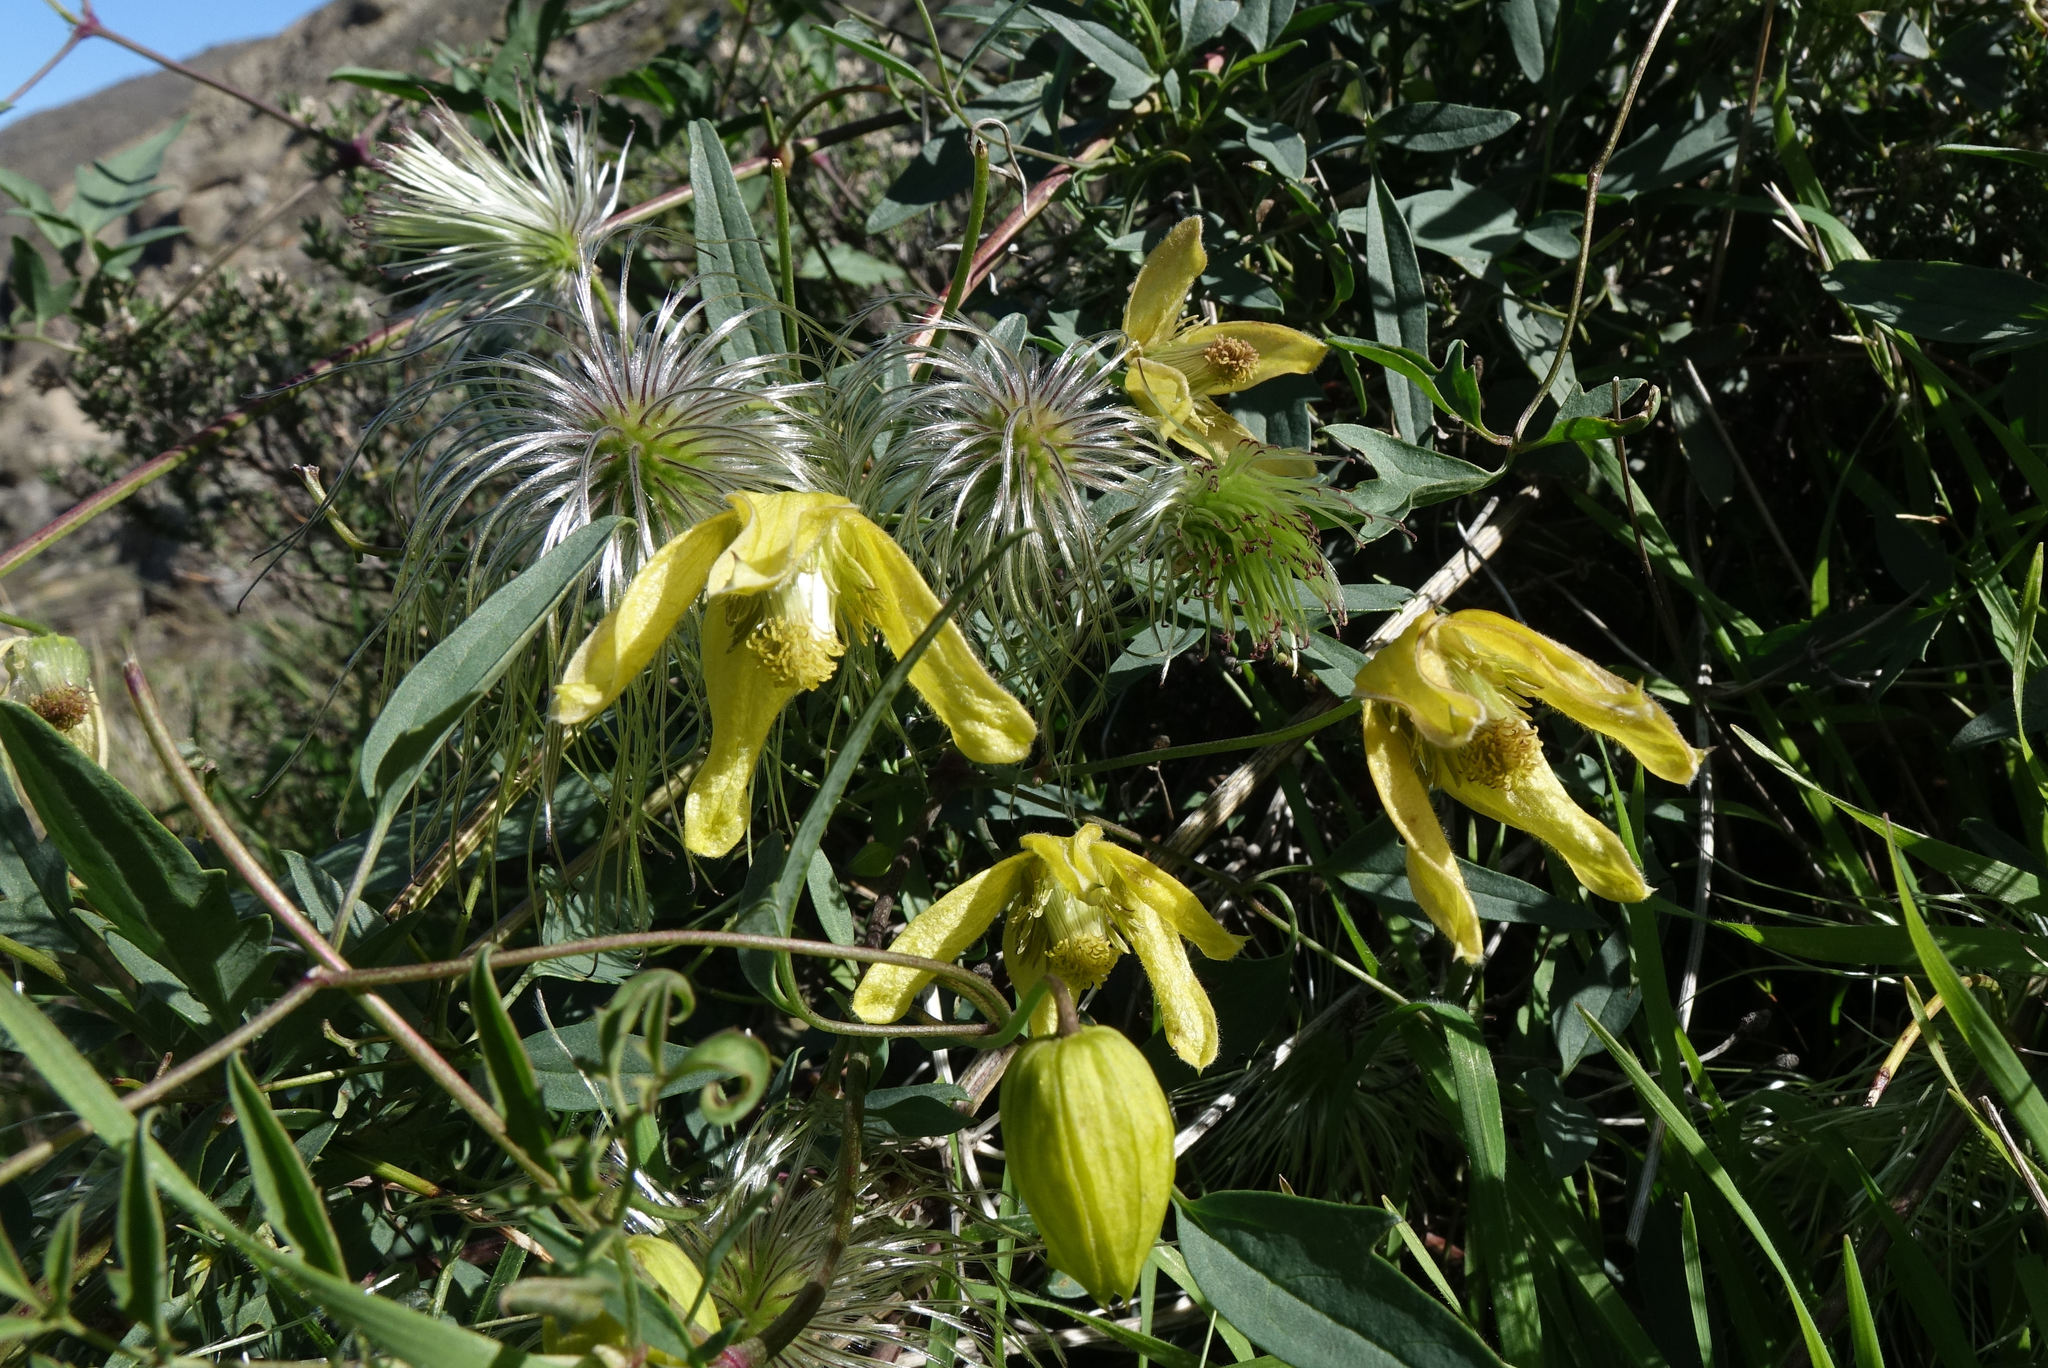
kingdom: Plantae
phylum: Tracheophyta
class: Magnoliopsida
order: Ranunculales
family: Ranunculaceae
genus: Clematis
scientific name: Clematis tangutica
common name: Orange-peel clematis
